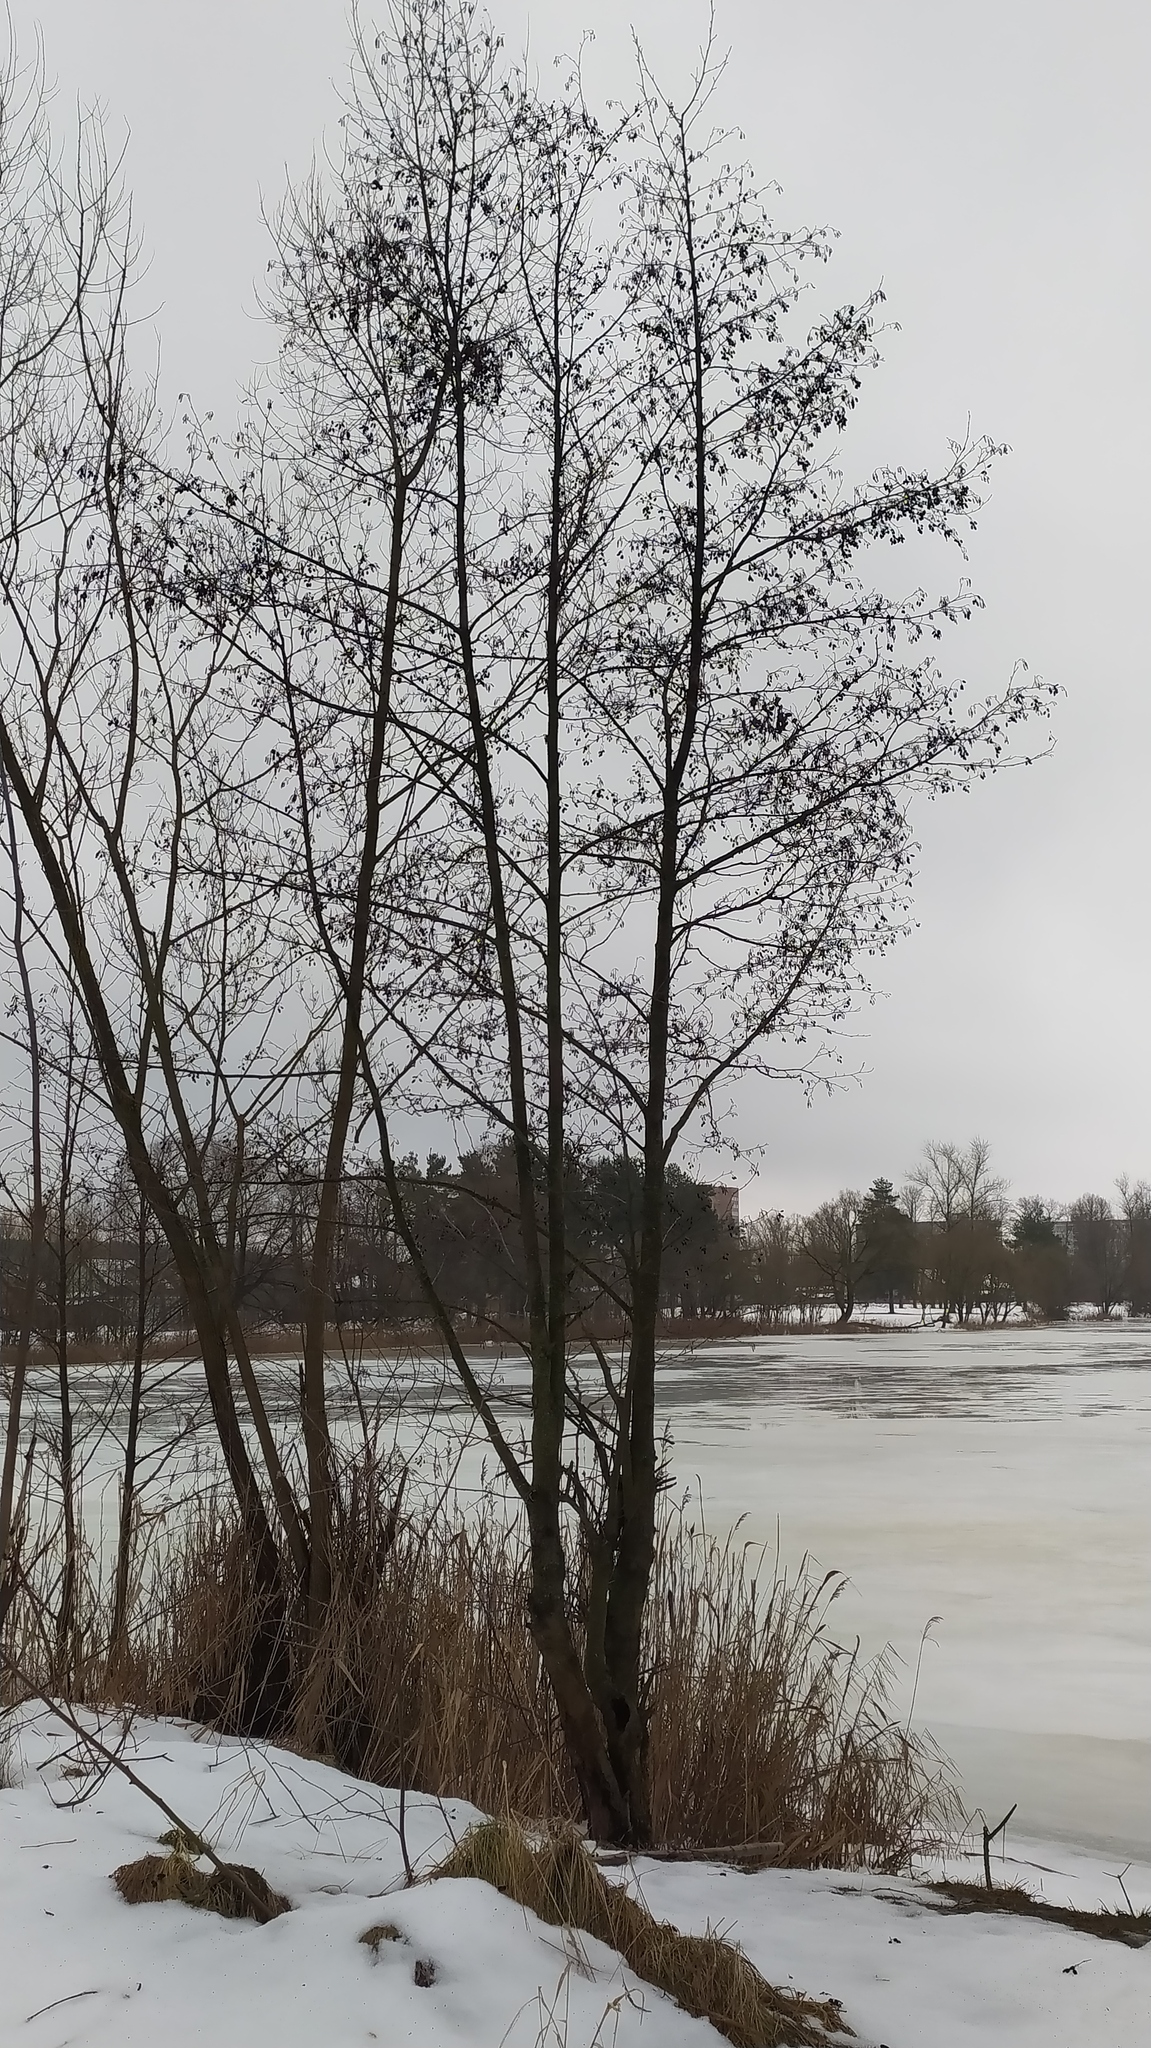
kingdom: Plantae
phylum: Tracheophyta
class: Magnoliopsida
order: Fagales
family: Betulaceae
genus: Alnus
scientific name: Alnus glutinosa
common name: Black alder
